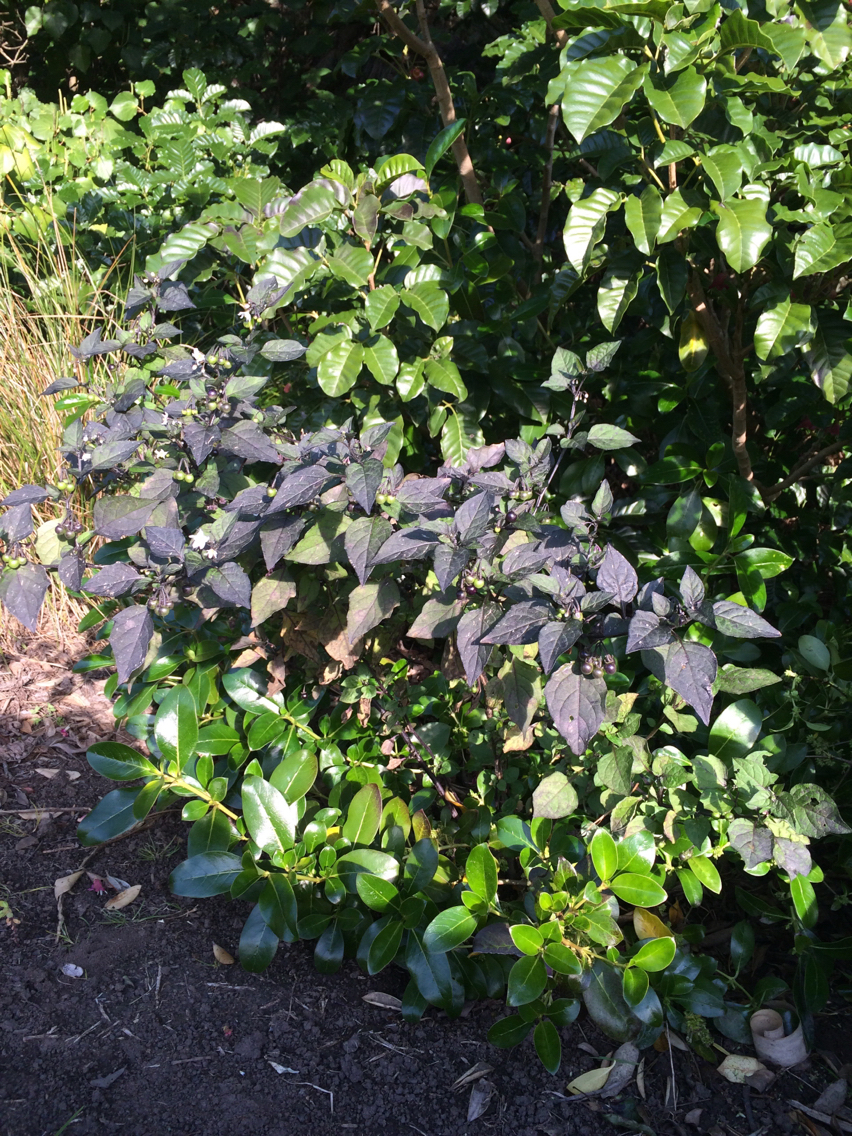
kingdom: Plantae
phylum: Tracheophyta
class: Magnoliopsida
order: Solanales
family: Solanaceae
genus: Solanum
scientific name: Solanum nigrum
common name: Black nightshade
